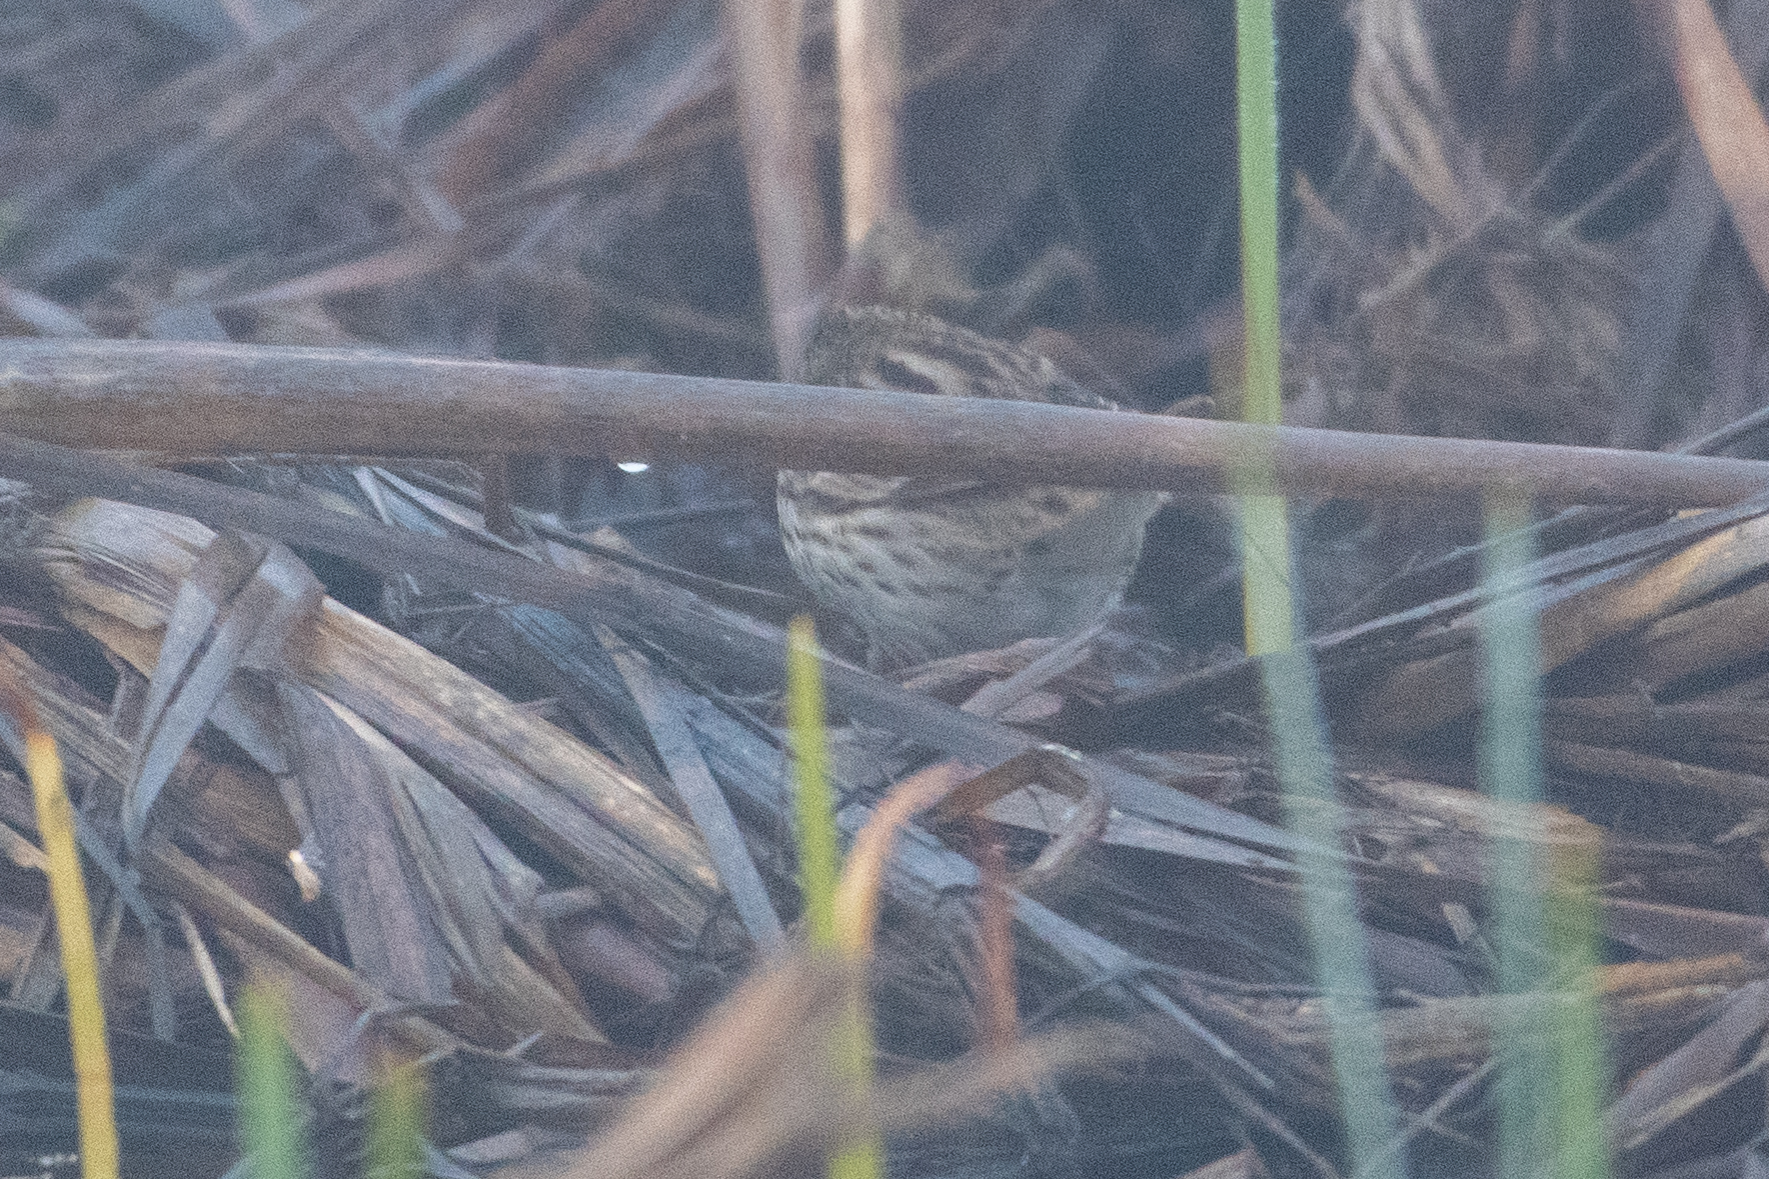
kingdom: Animalia
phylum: Chordata
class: Aves
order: Passeriformes
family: Passerellidae
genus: Passerculus
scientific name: Passerculus sandwichensis
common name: Savannah sparrow
